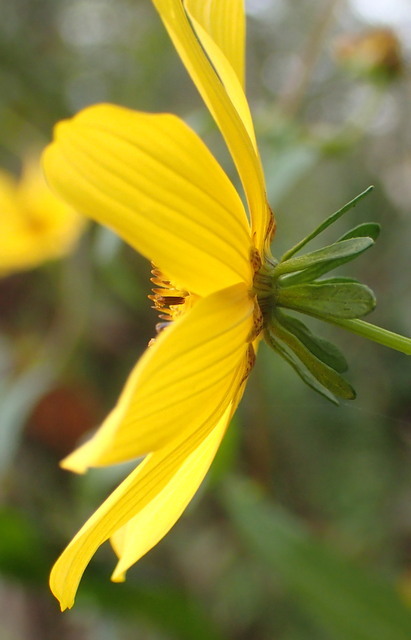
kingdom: Plantae
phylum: Tracheophyta
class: Magnoliopsida
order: Asterales
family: Asteraceae
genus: Bidens
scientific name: Bidens mitis
